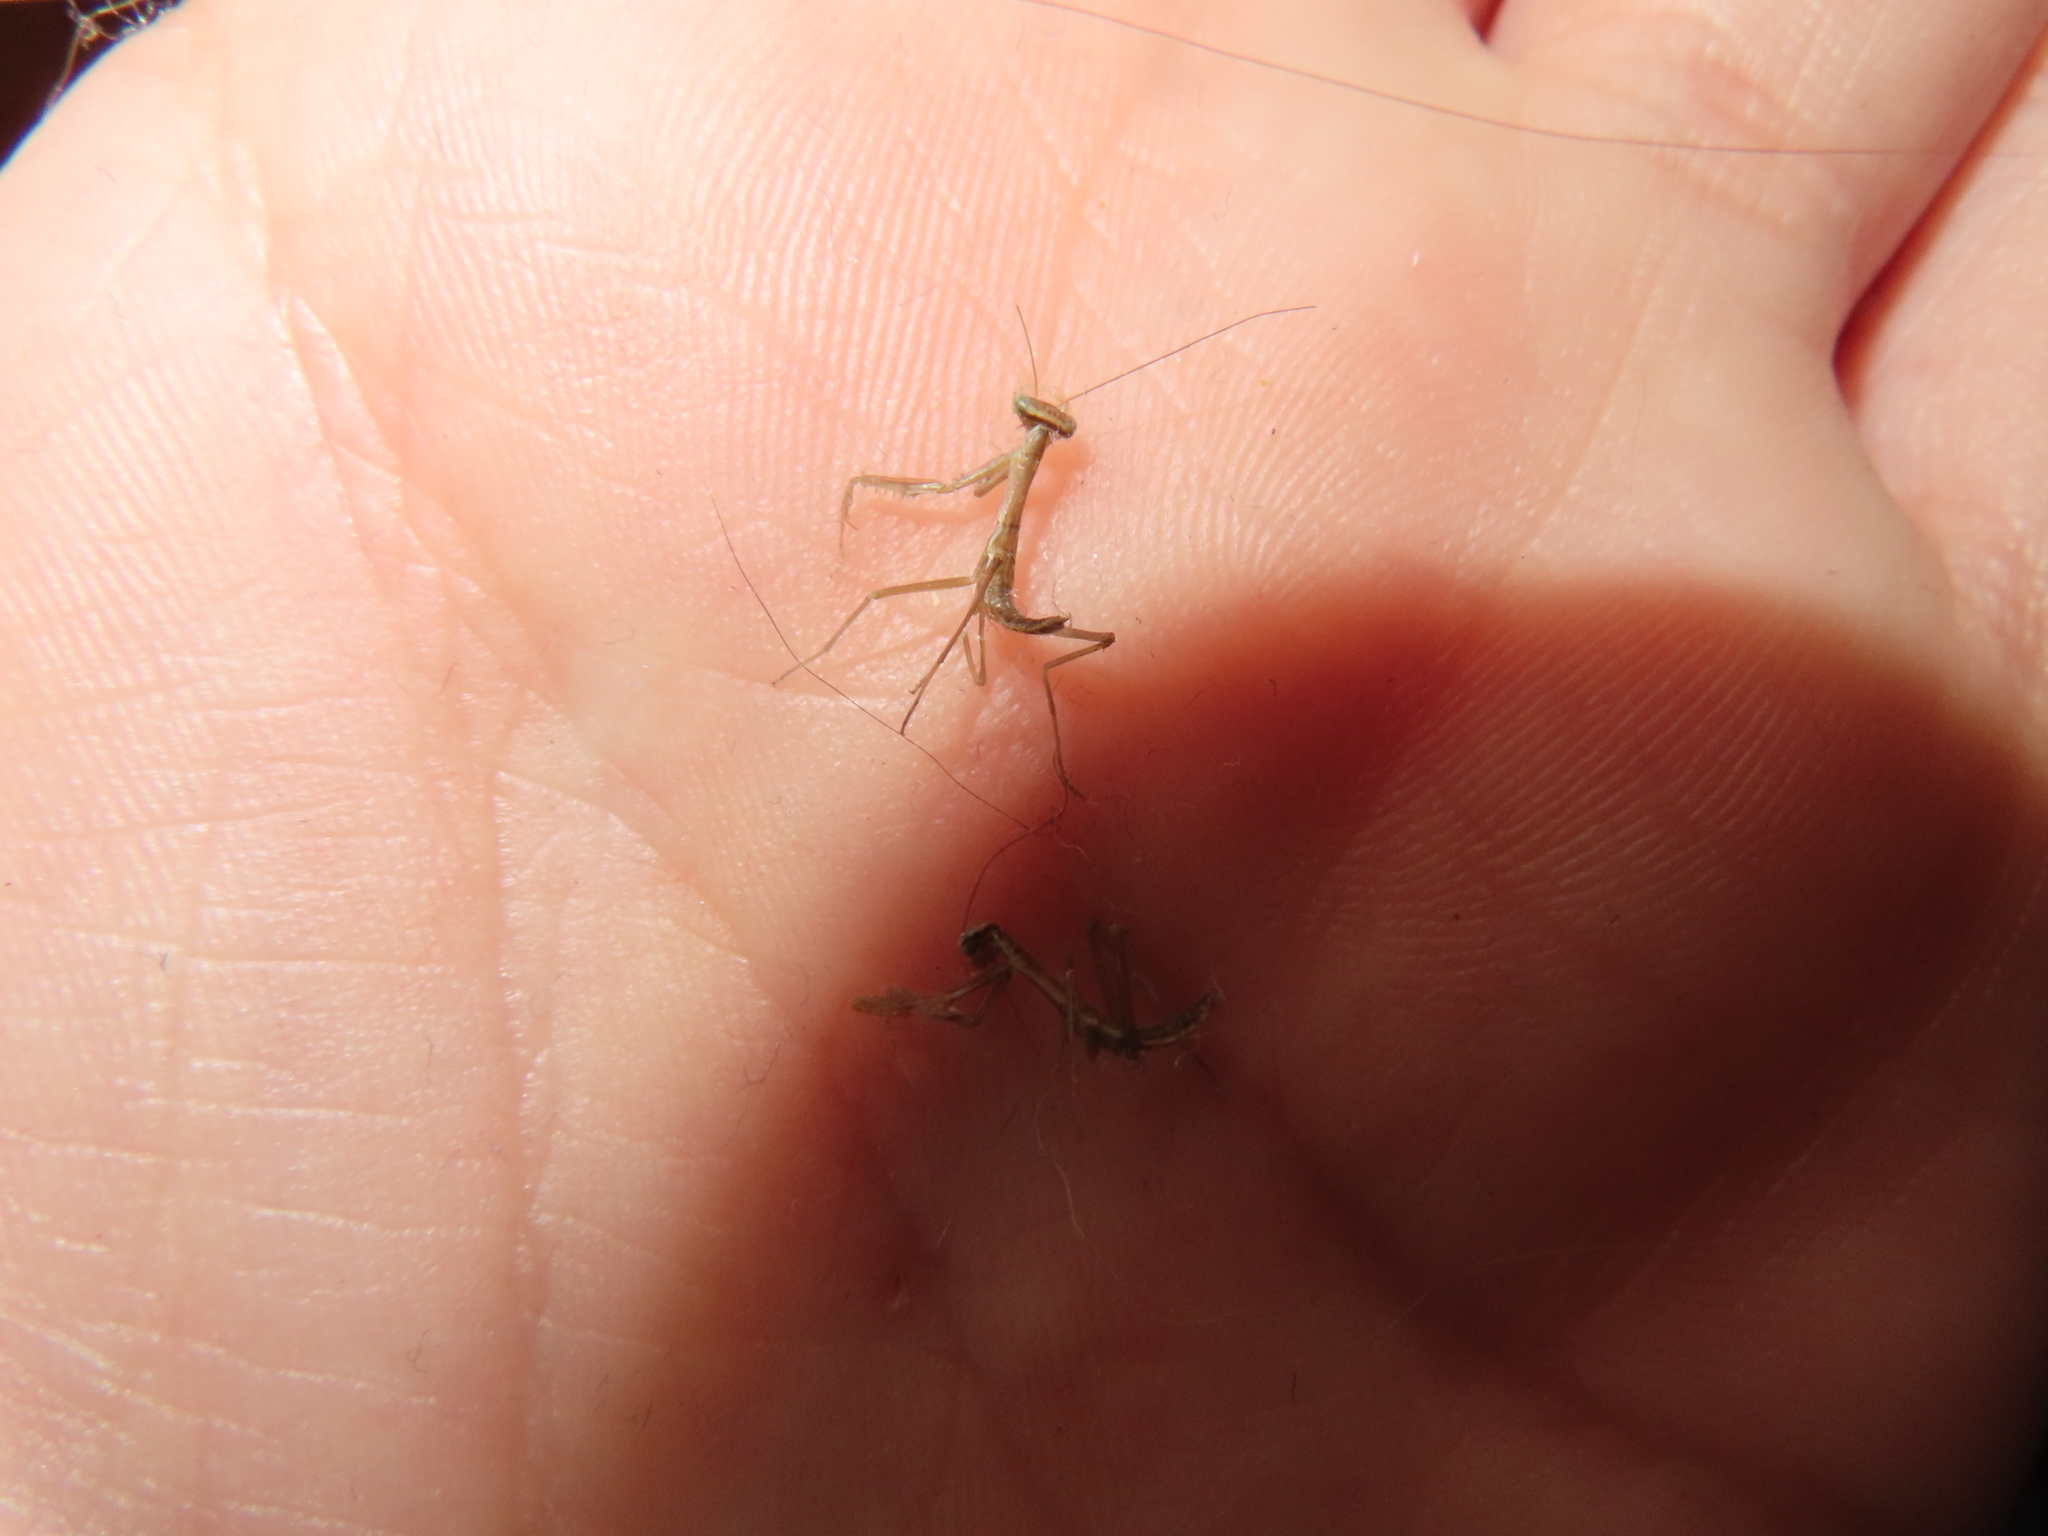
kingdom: Animalia
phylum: Arthropoda
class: Insecta
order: Mantodea
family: Mantidae
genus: Tenodera
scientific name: Tenodera sinensis
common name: Chinese mantis
